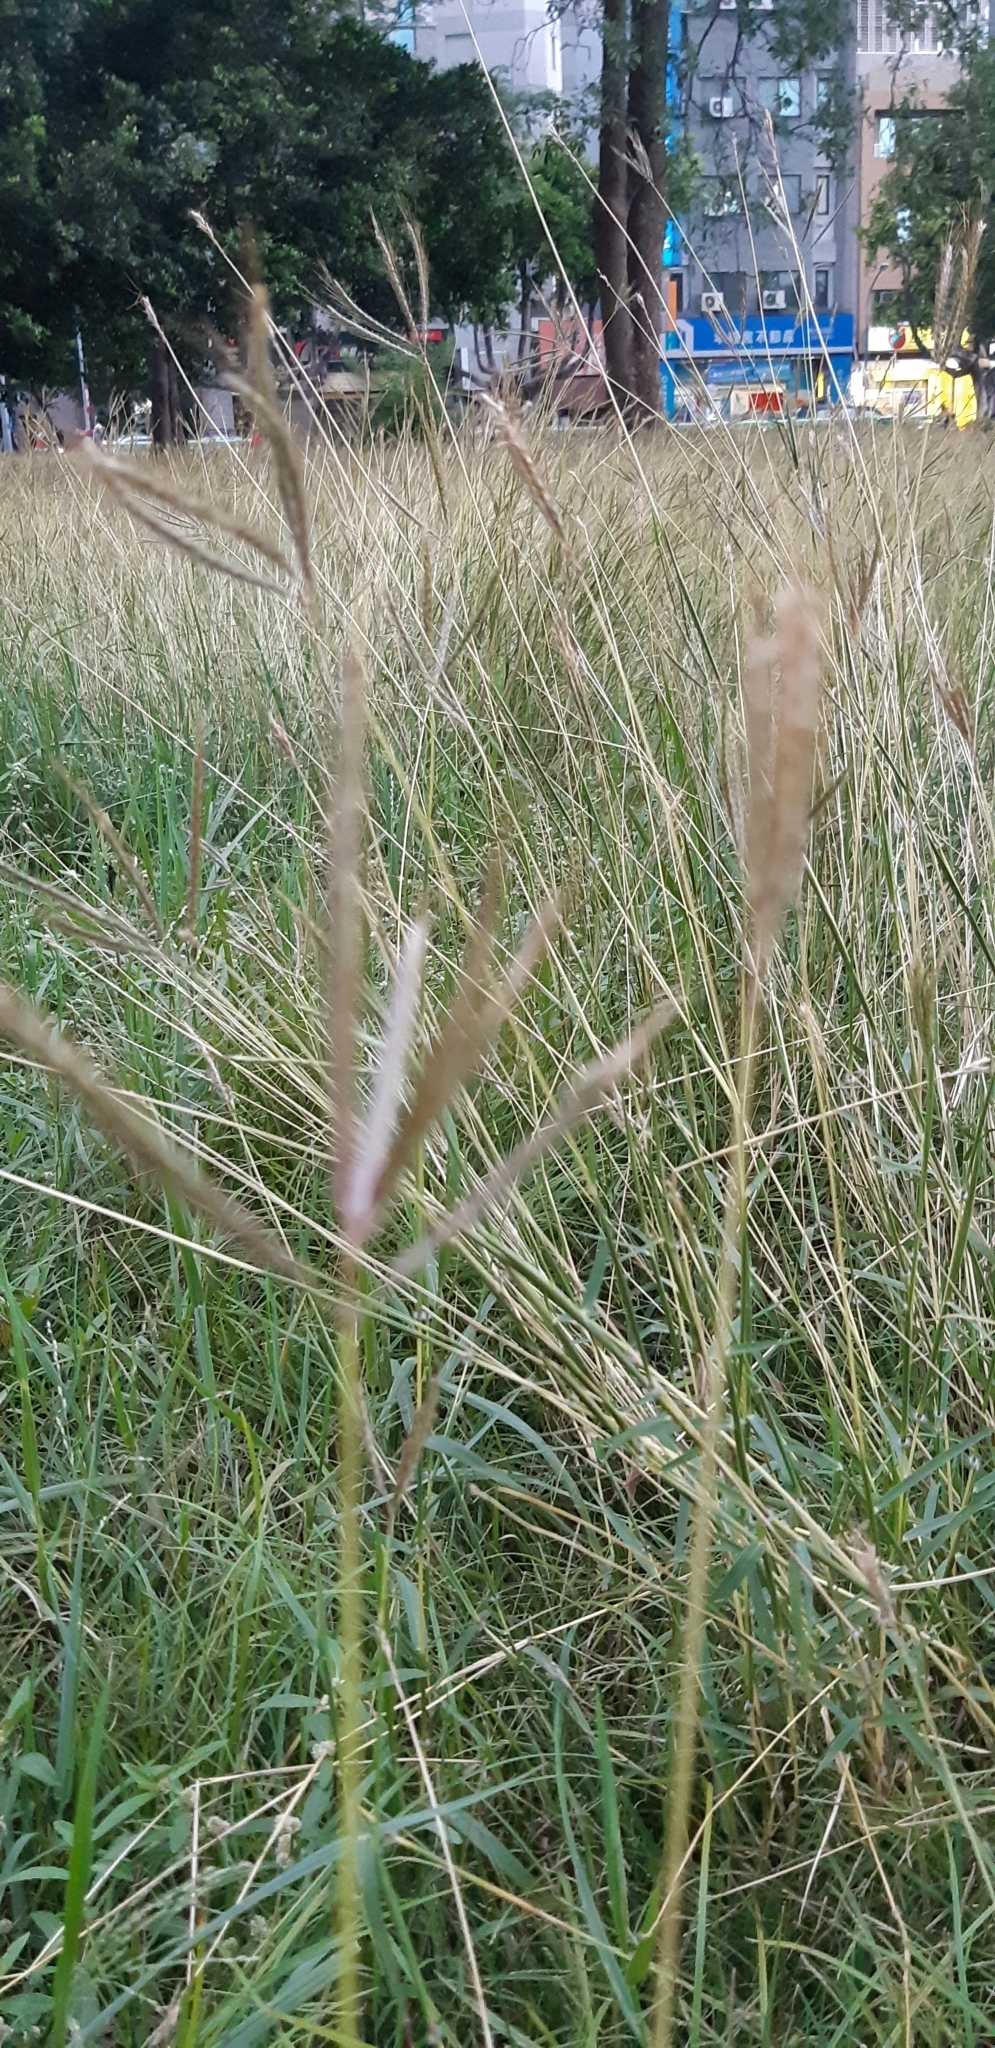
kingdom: Plantae
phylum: Tracheophyta
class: Liliopsida
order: Poales
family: Poaceae
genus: Dichanthium
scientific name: Dichanthium annulatum
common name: Kleberg's bluestem
